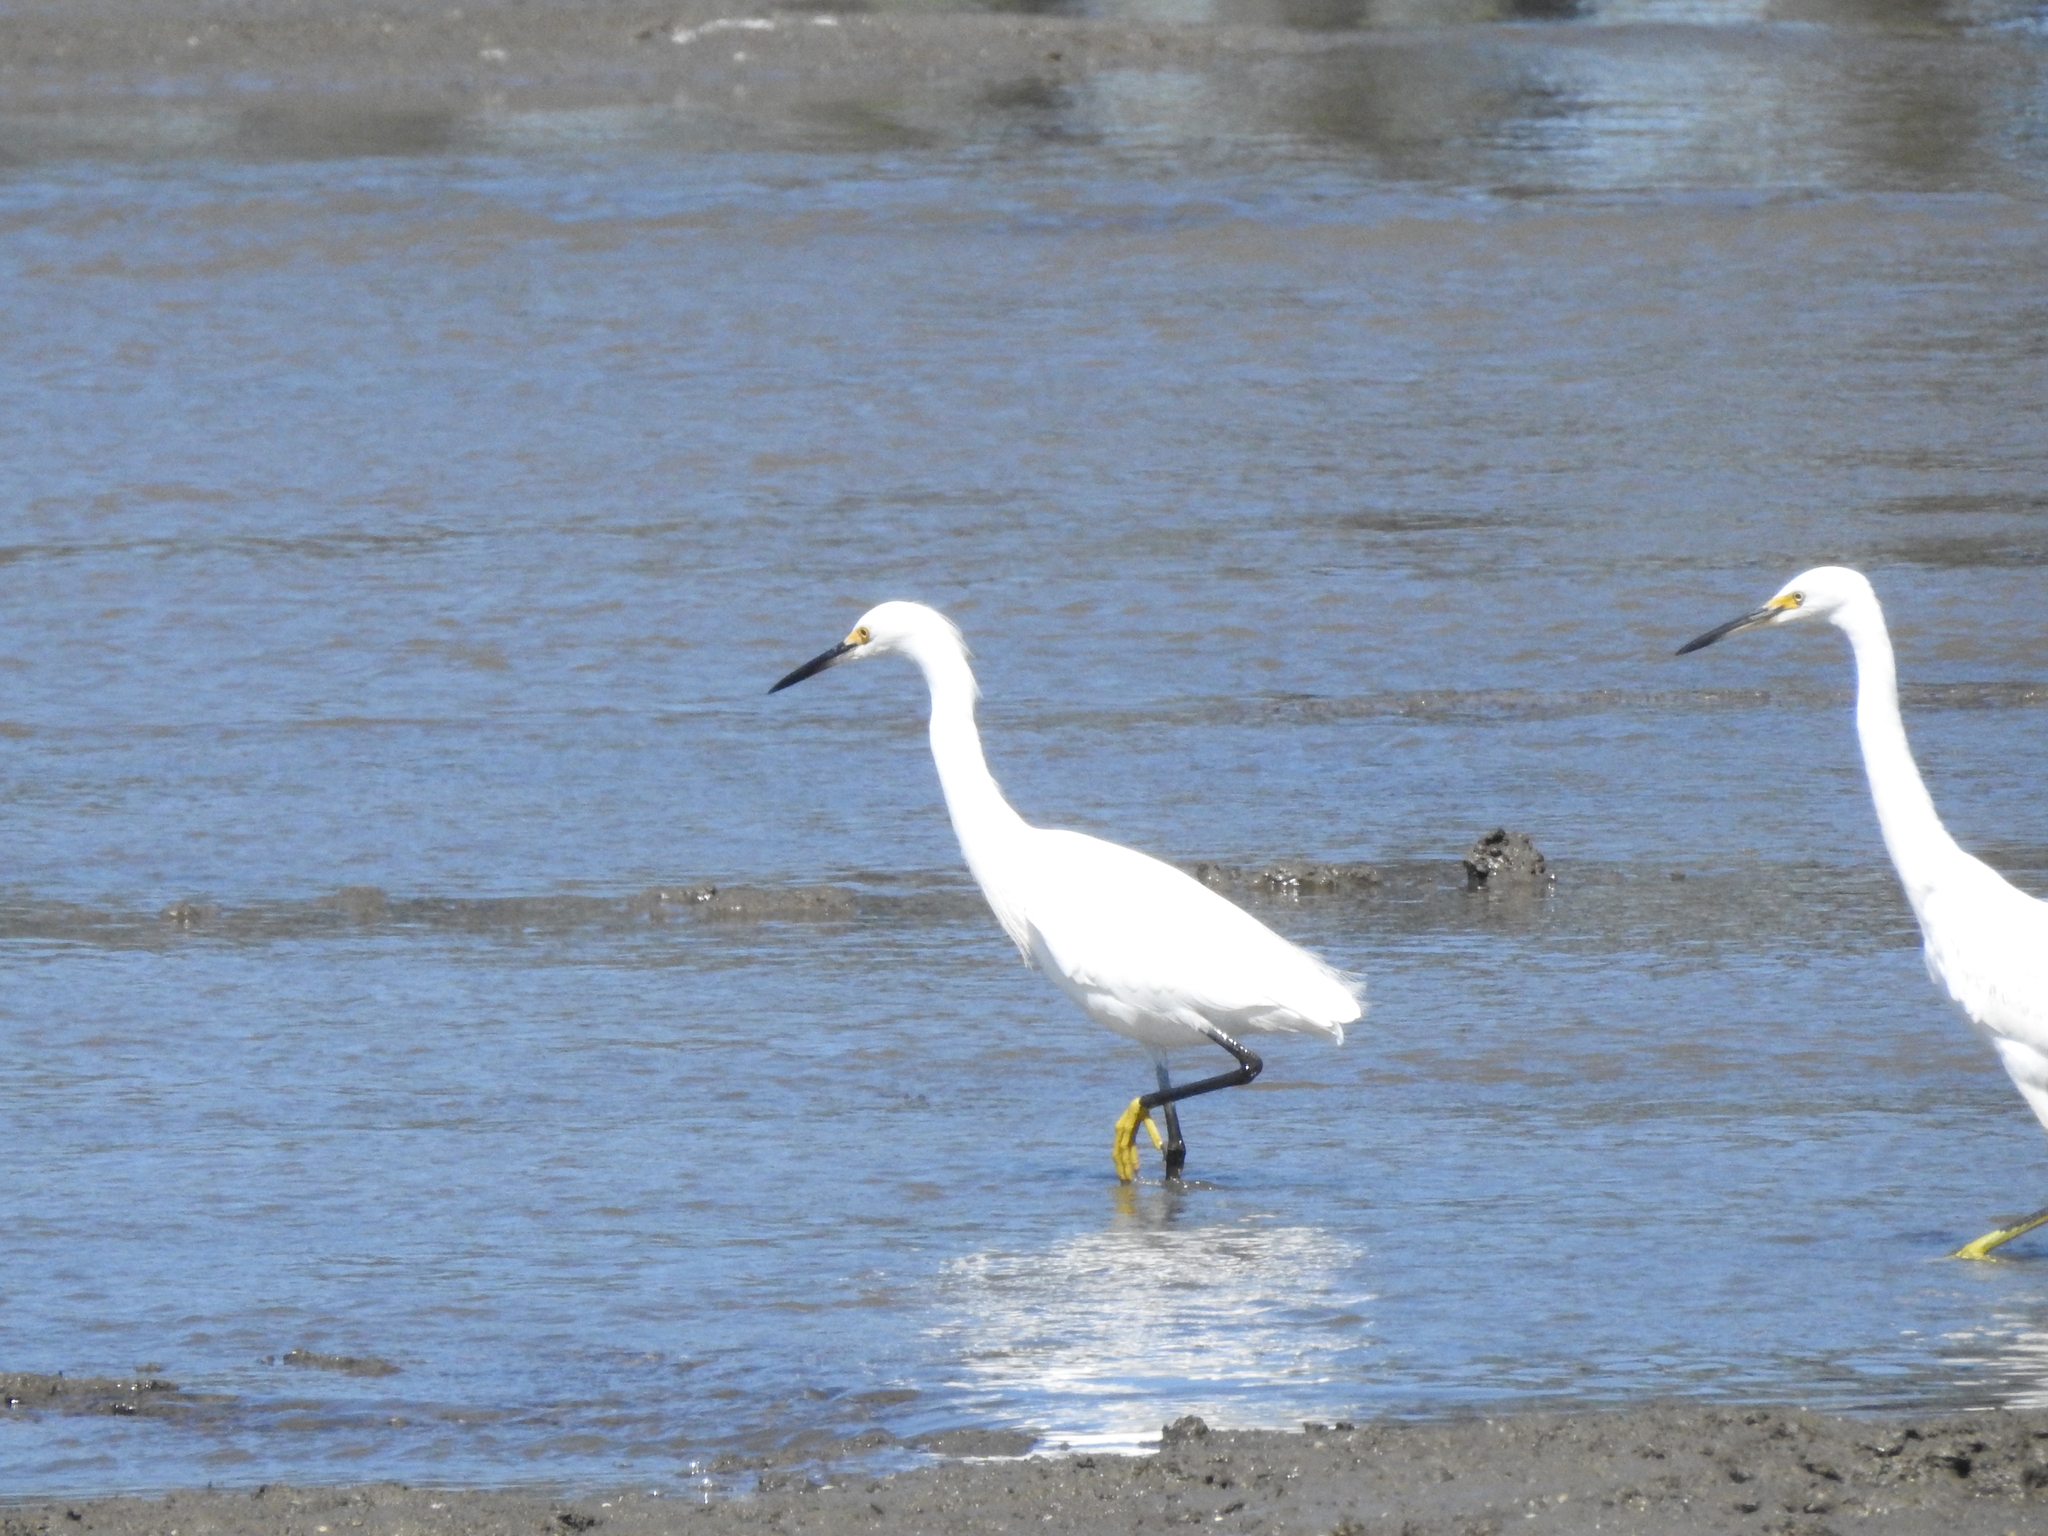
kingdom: Animalia
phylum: Chordata
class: Aves
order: Pelecaniformes
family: Ardeidae
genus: Egretta
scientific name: Egretta thula
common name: Snowy egret
